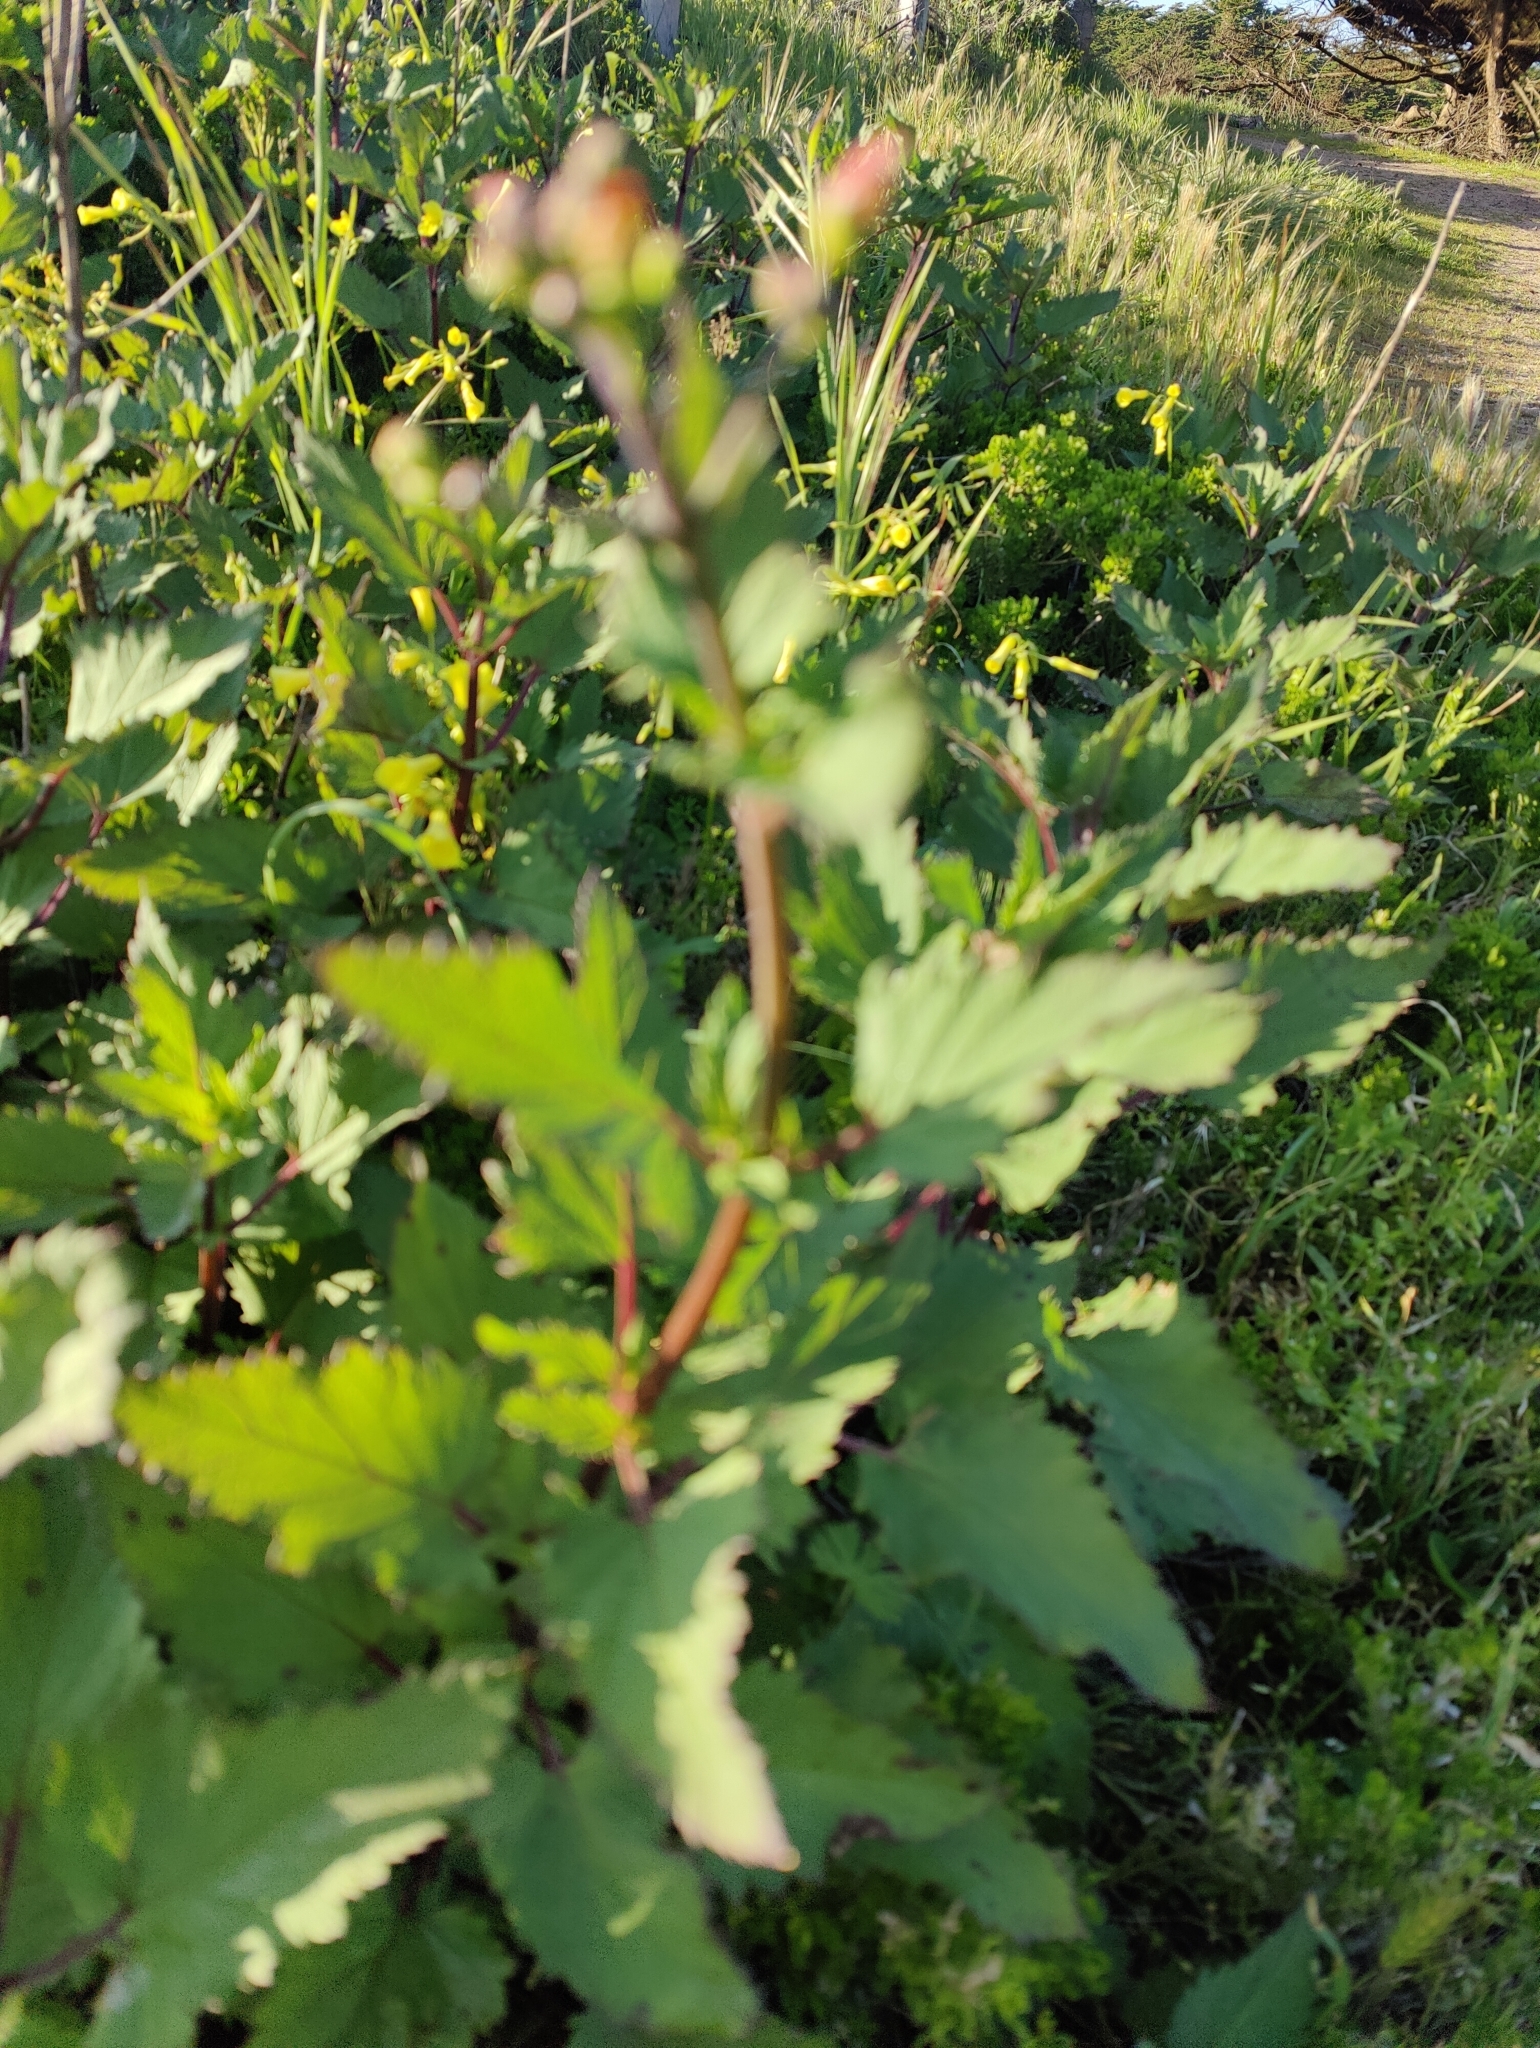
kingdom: Plantae
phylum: Tracheophyta
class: Magnoliopsida
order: Lamiales
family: Scrophulariaceae
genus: Scrophularia
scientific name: Scrophularia californica
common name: California figwort
